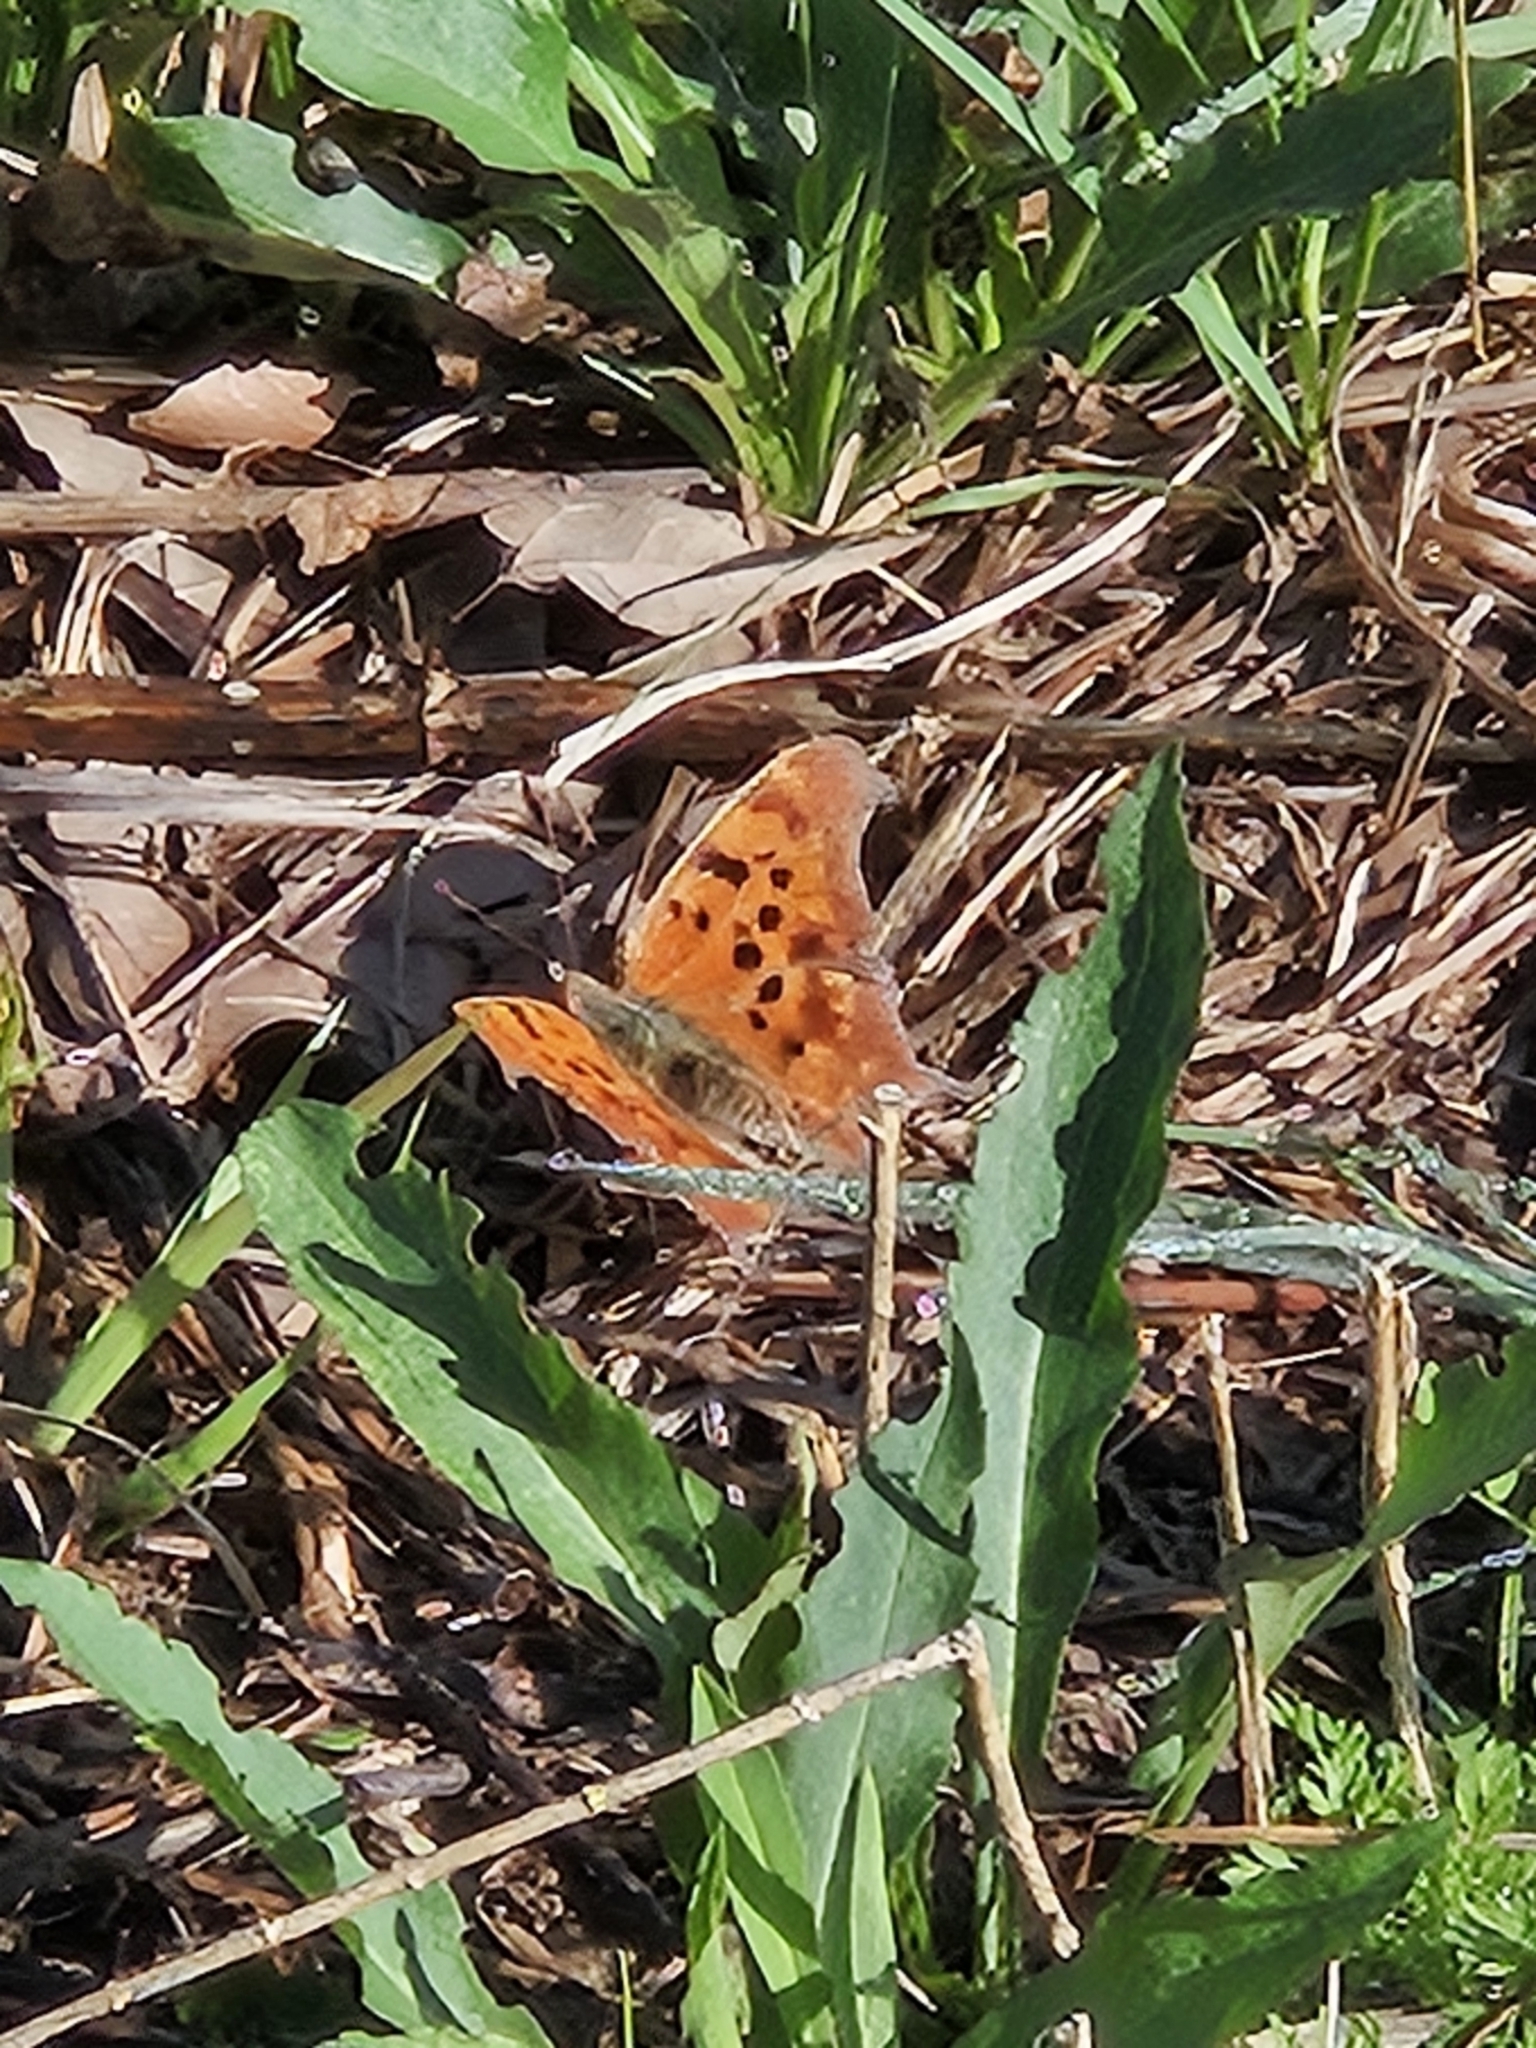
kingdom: Animalia
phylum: Arthropoda
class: Insecta
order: Lepidoptera
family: Nymphalidae
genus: Polygonia
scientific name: Polygonia interrogationis
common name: Question mark
